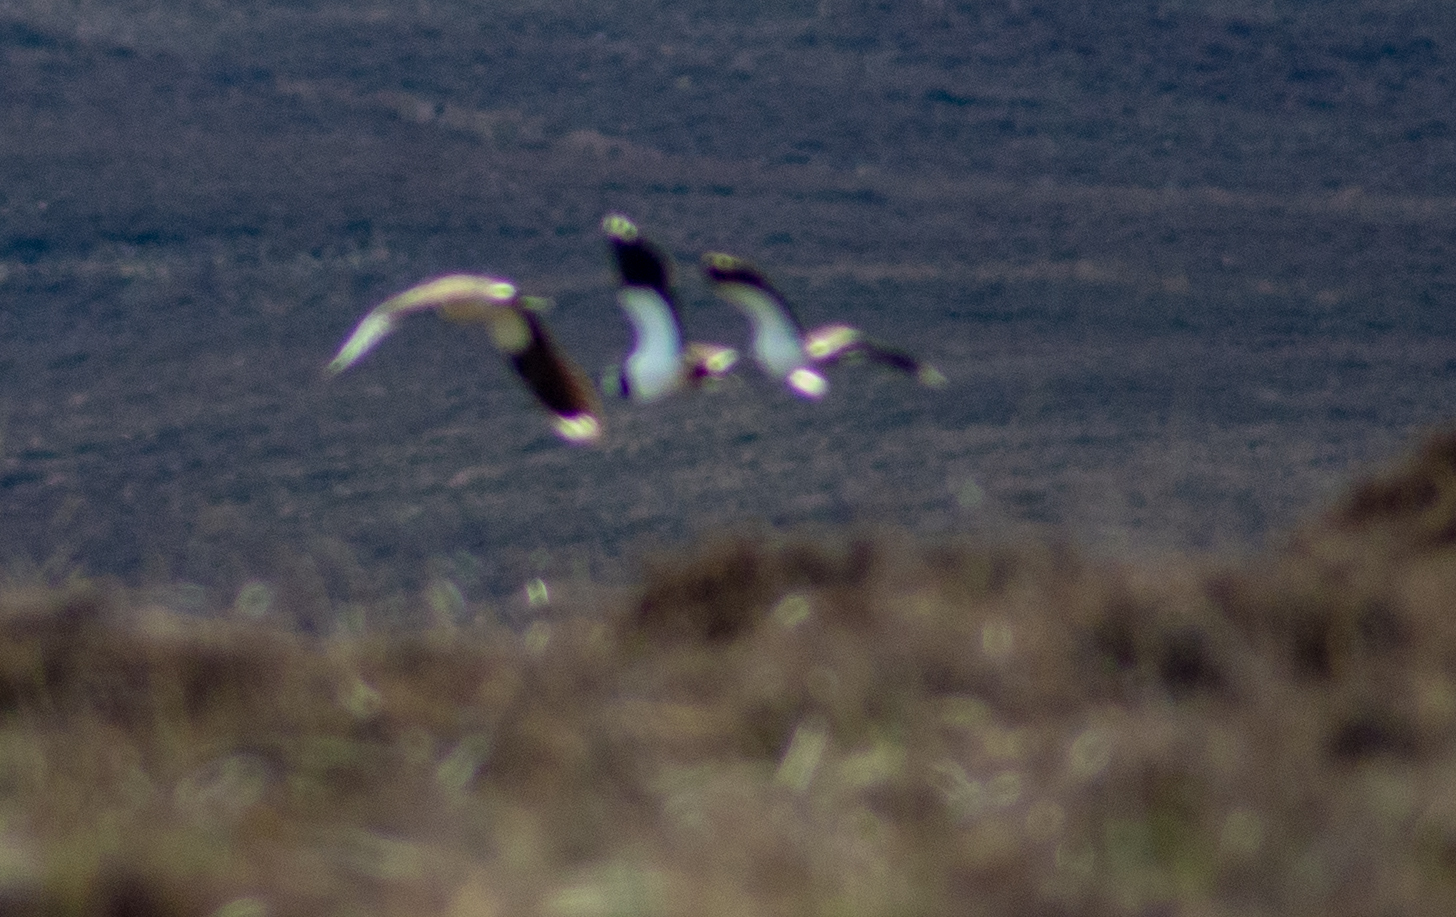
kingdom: Animalia
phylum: Chordata
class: Aves
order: Charadriiformes
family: Charadriidae
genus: Vanellus
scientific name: Vanellus vanellus
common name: Northern lapwing
